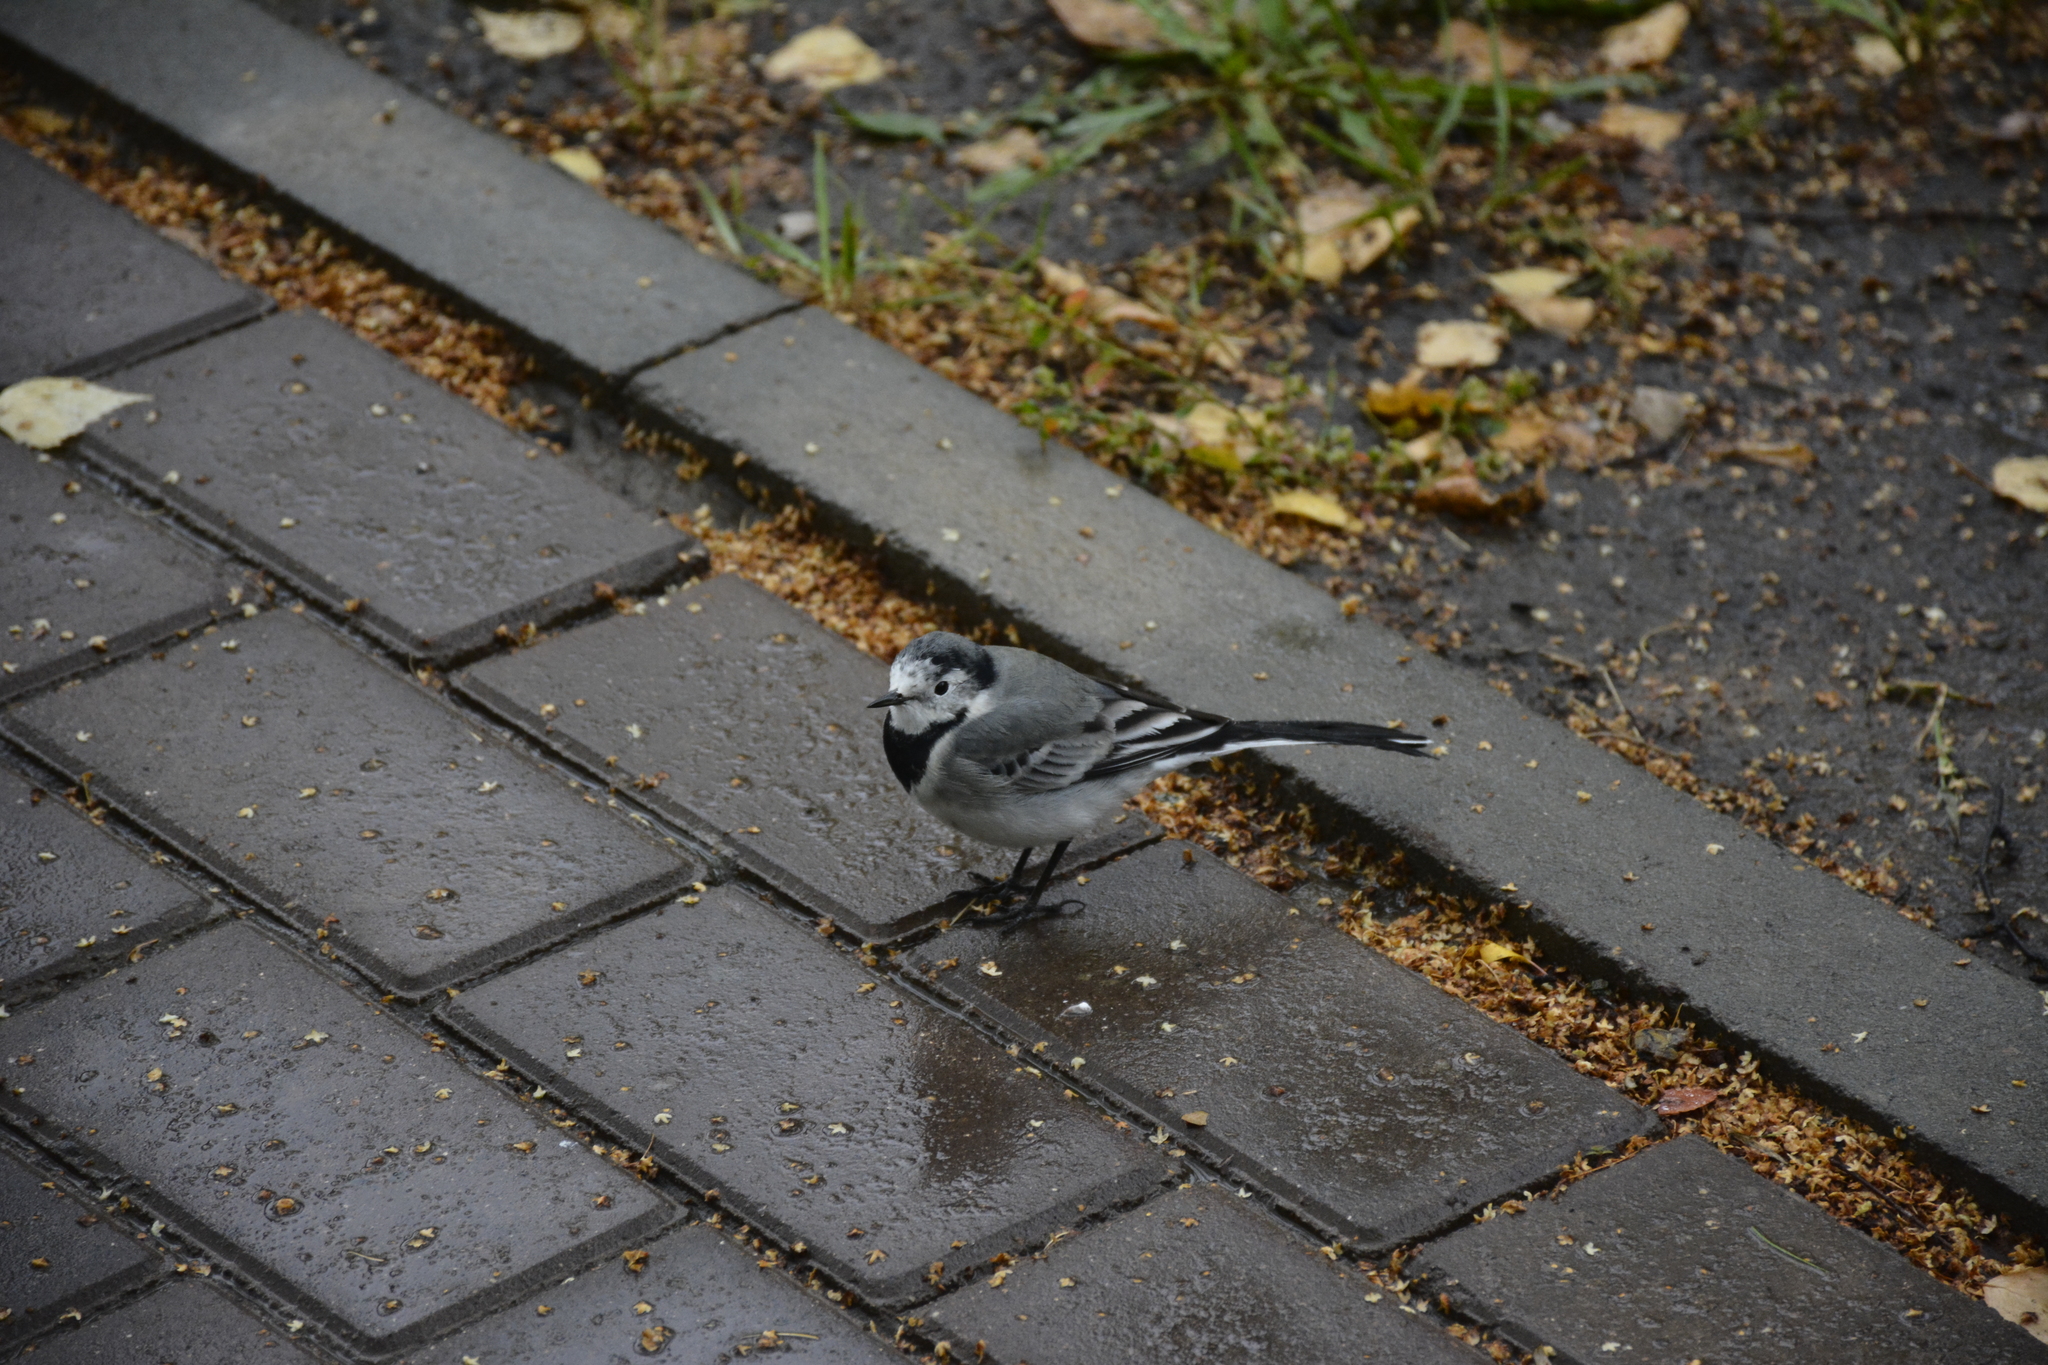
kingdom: Animalia
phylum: Chordata
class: Aves
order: Passeriformes
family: Motacillidae
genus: Motacilla
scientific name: Motacilla alba
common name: White wagtail
